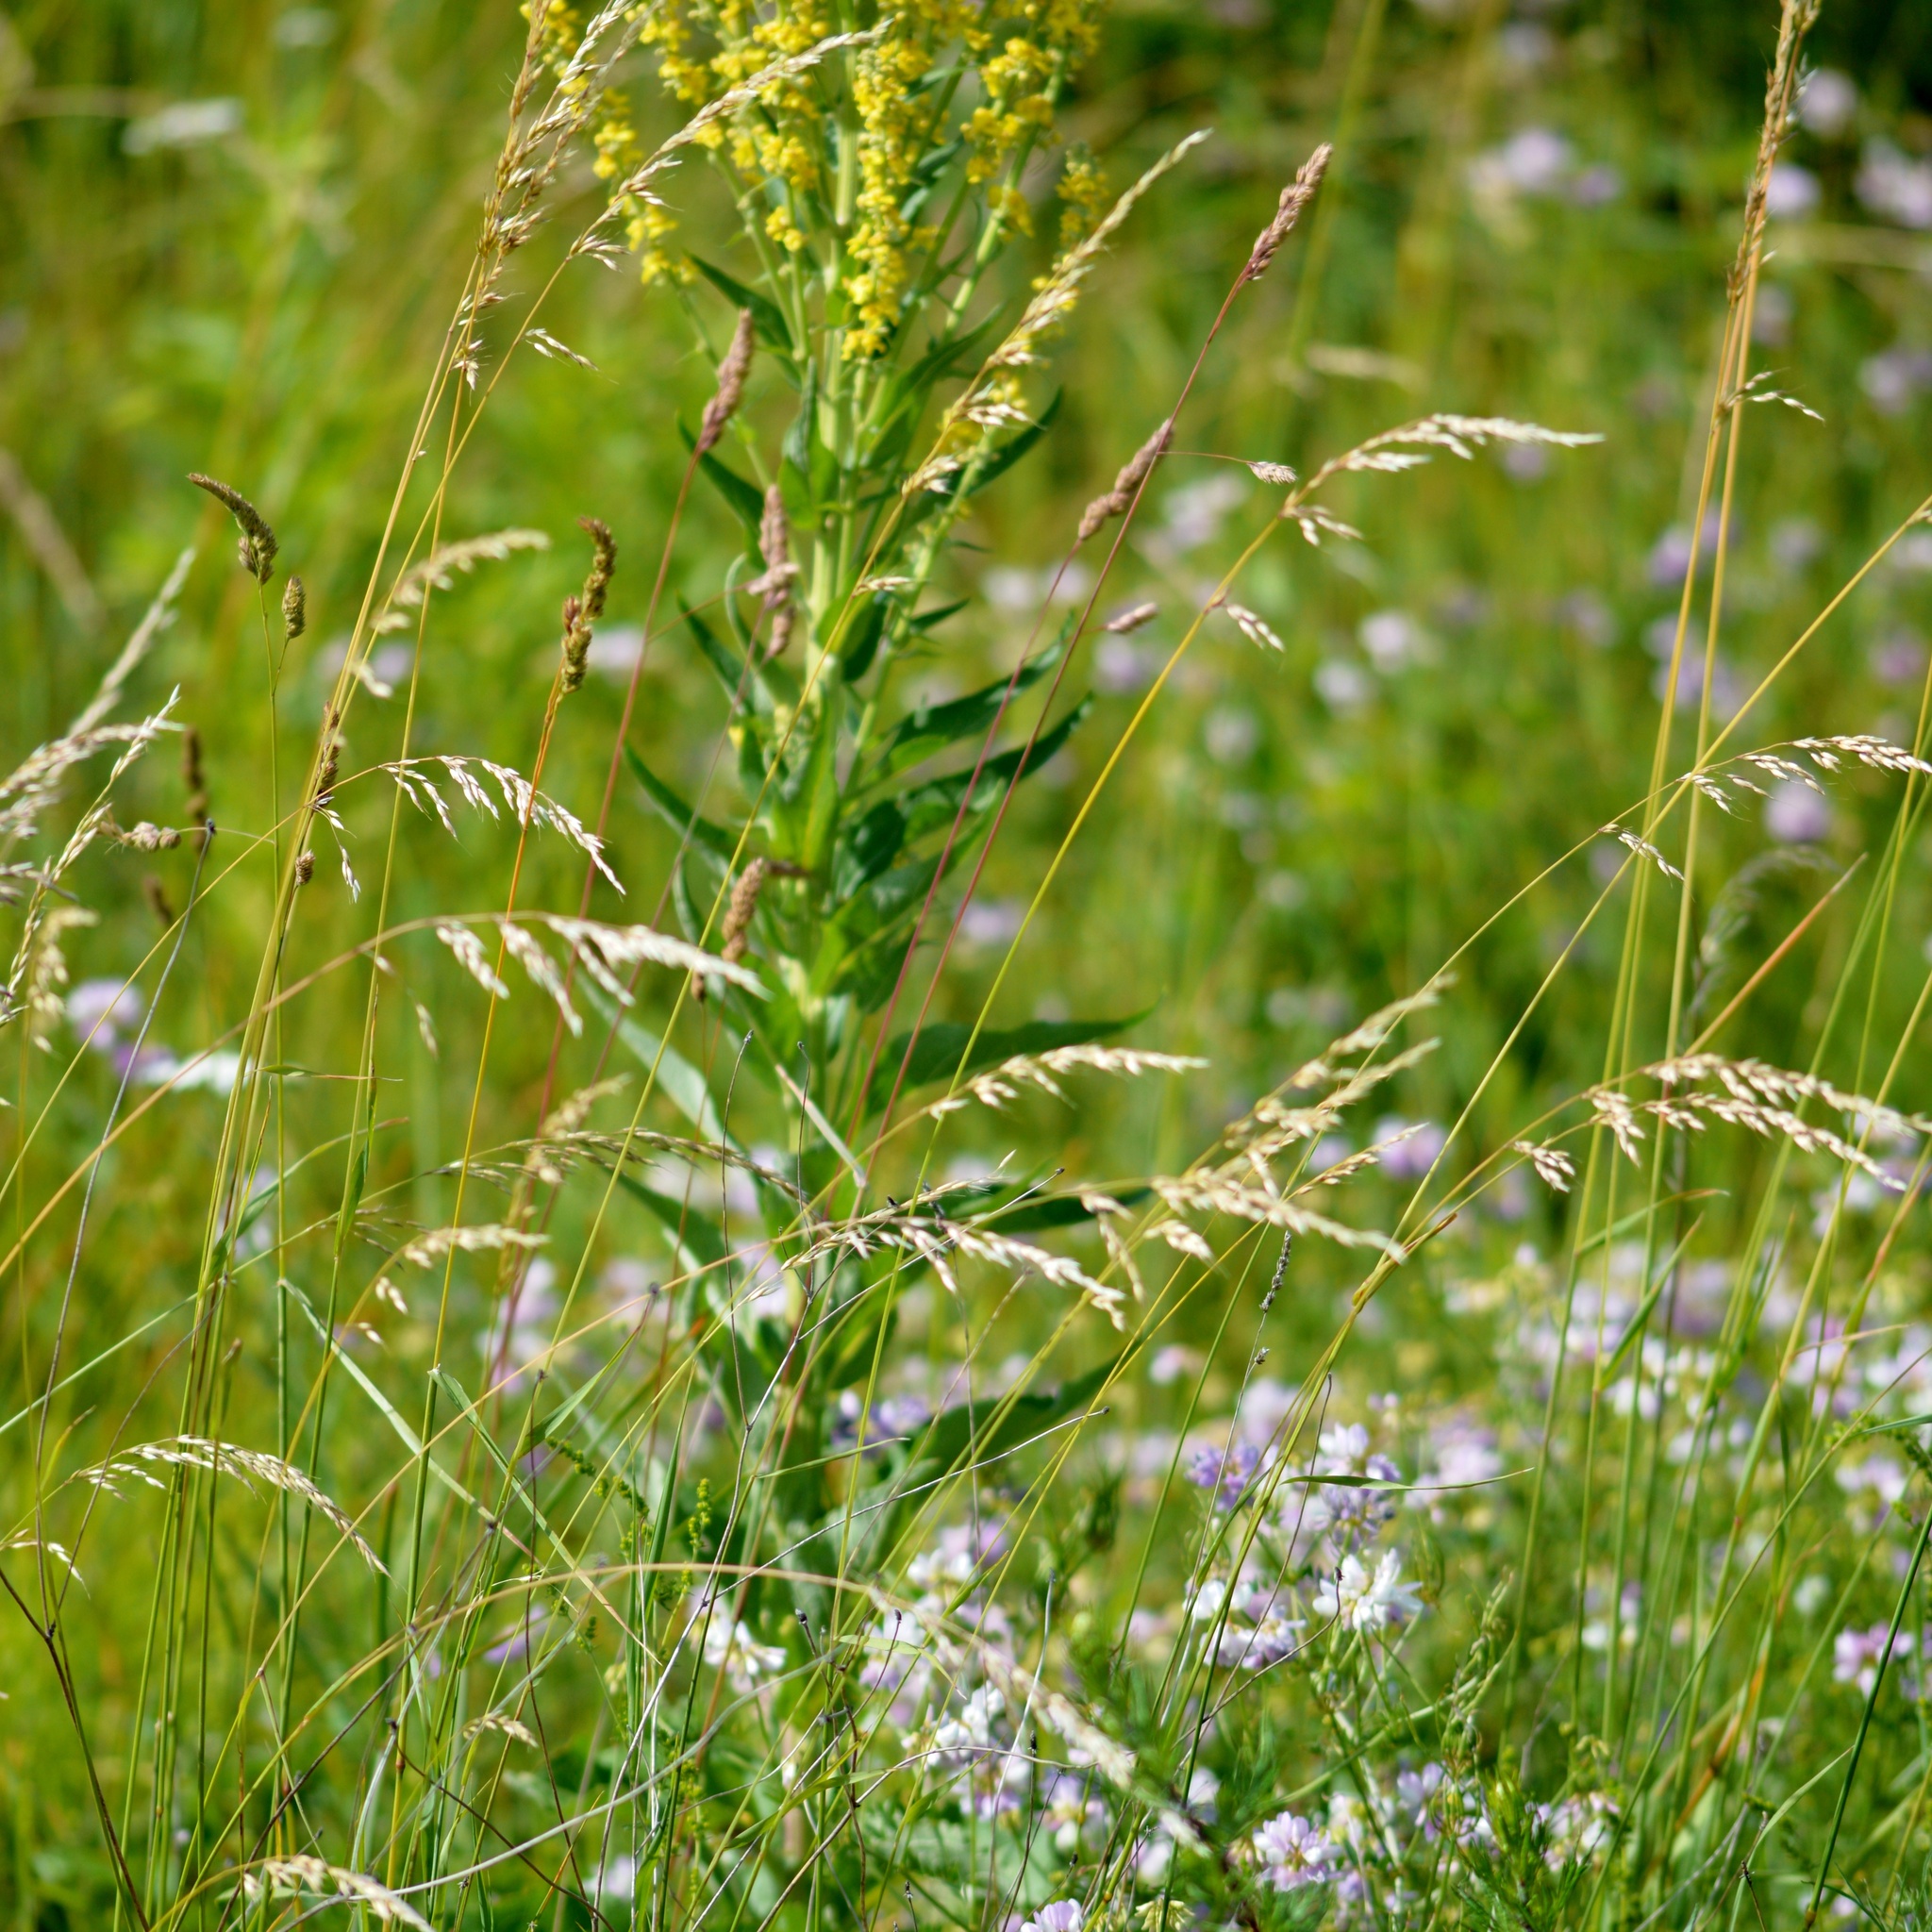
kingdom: Plantae
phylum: Tracheophyta
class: Magnoliopsida
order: Lamiales
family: Scrophulariaceae
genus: Verbascum
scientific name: Verbascum lychnitis
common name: White mullein
